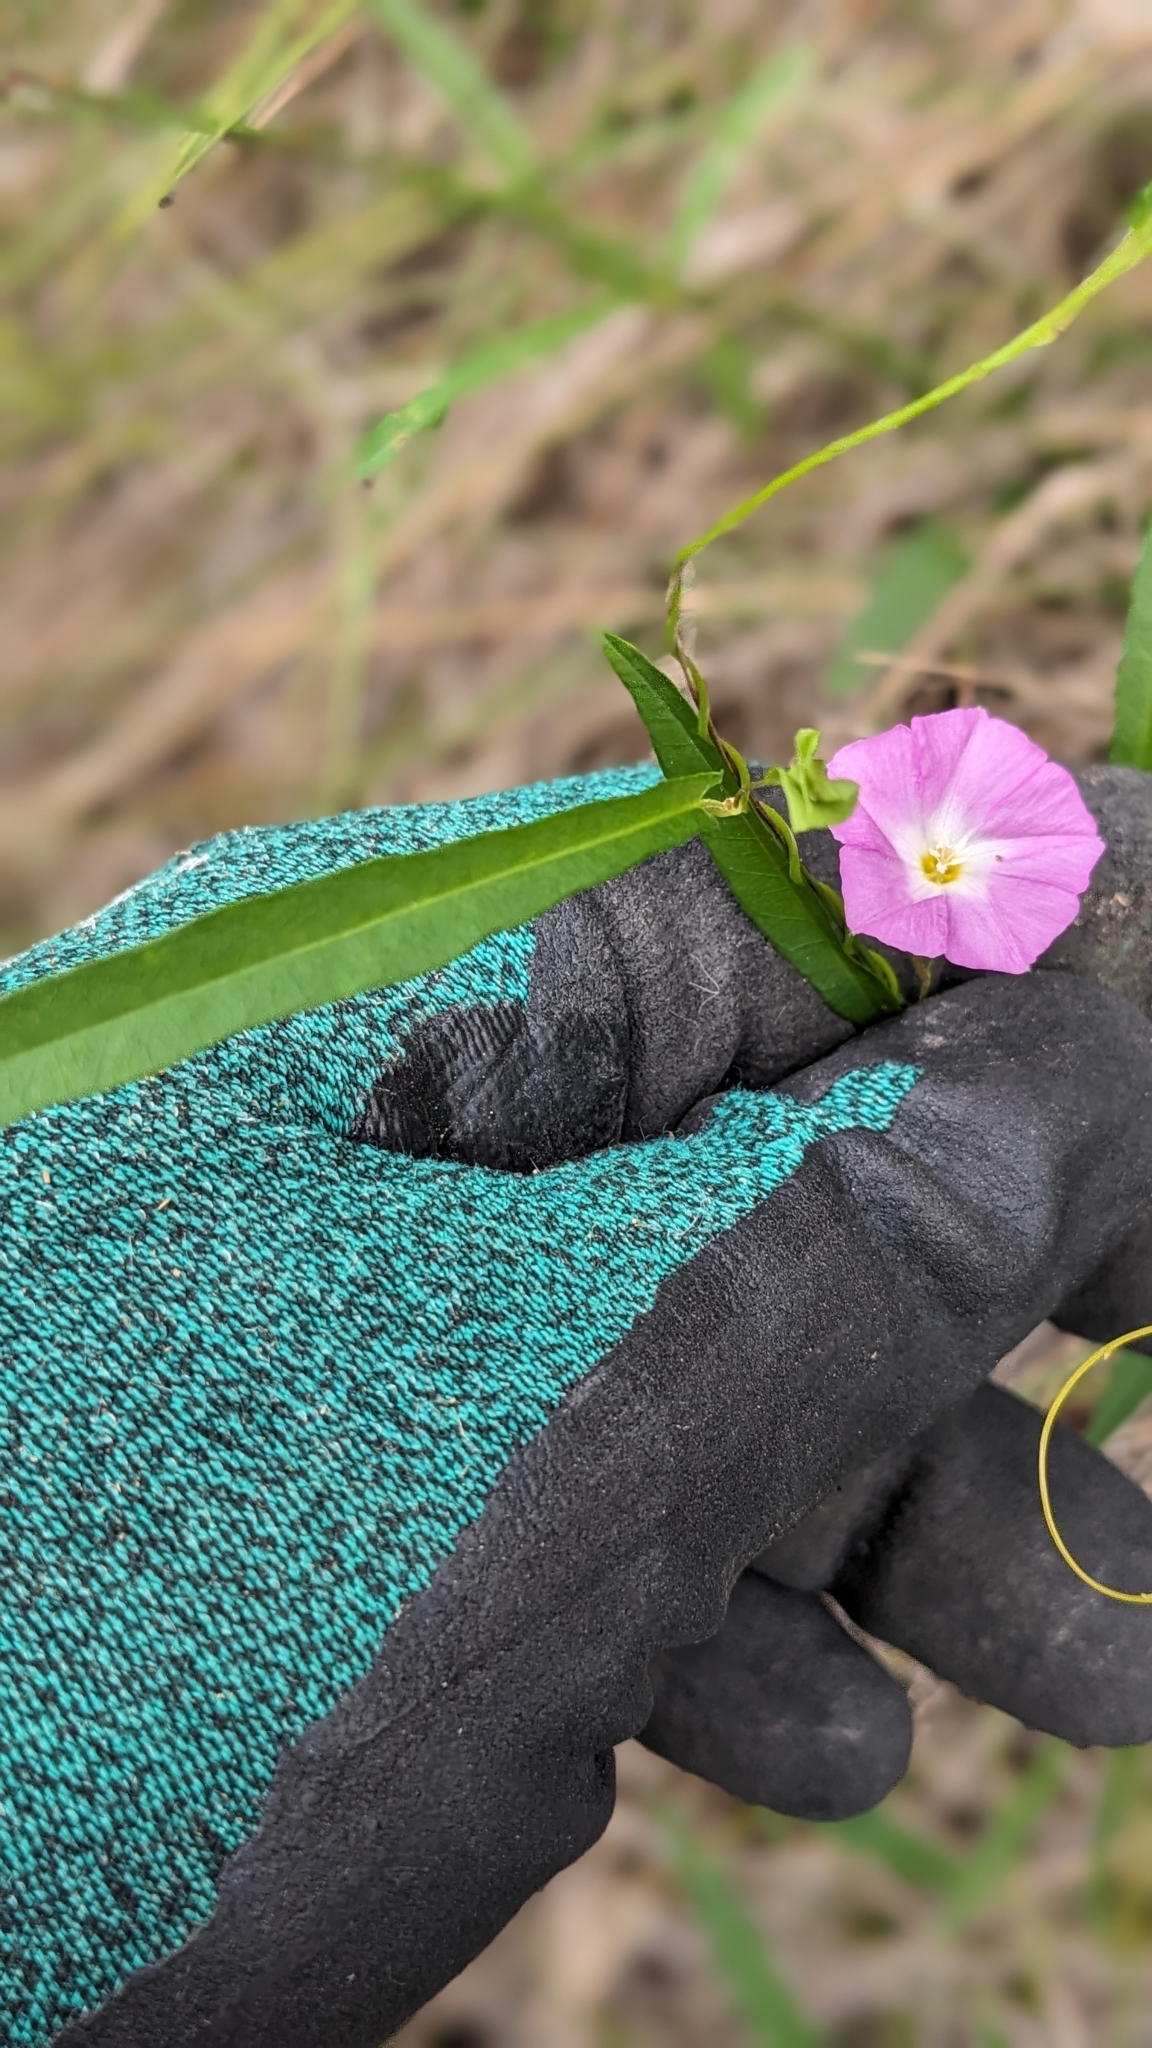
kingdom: Plantae
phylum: Tracheophyta
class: Magnoliopsida
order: Solanales
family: Convolvulaceae
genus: Polymeria
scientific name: Polymeria calycina
